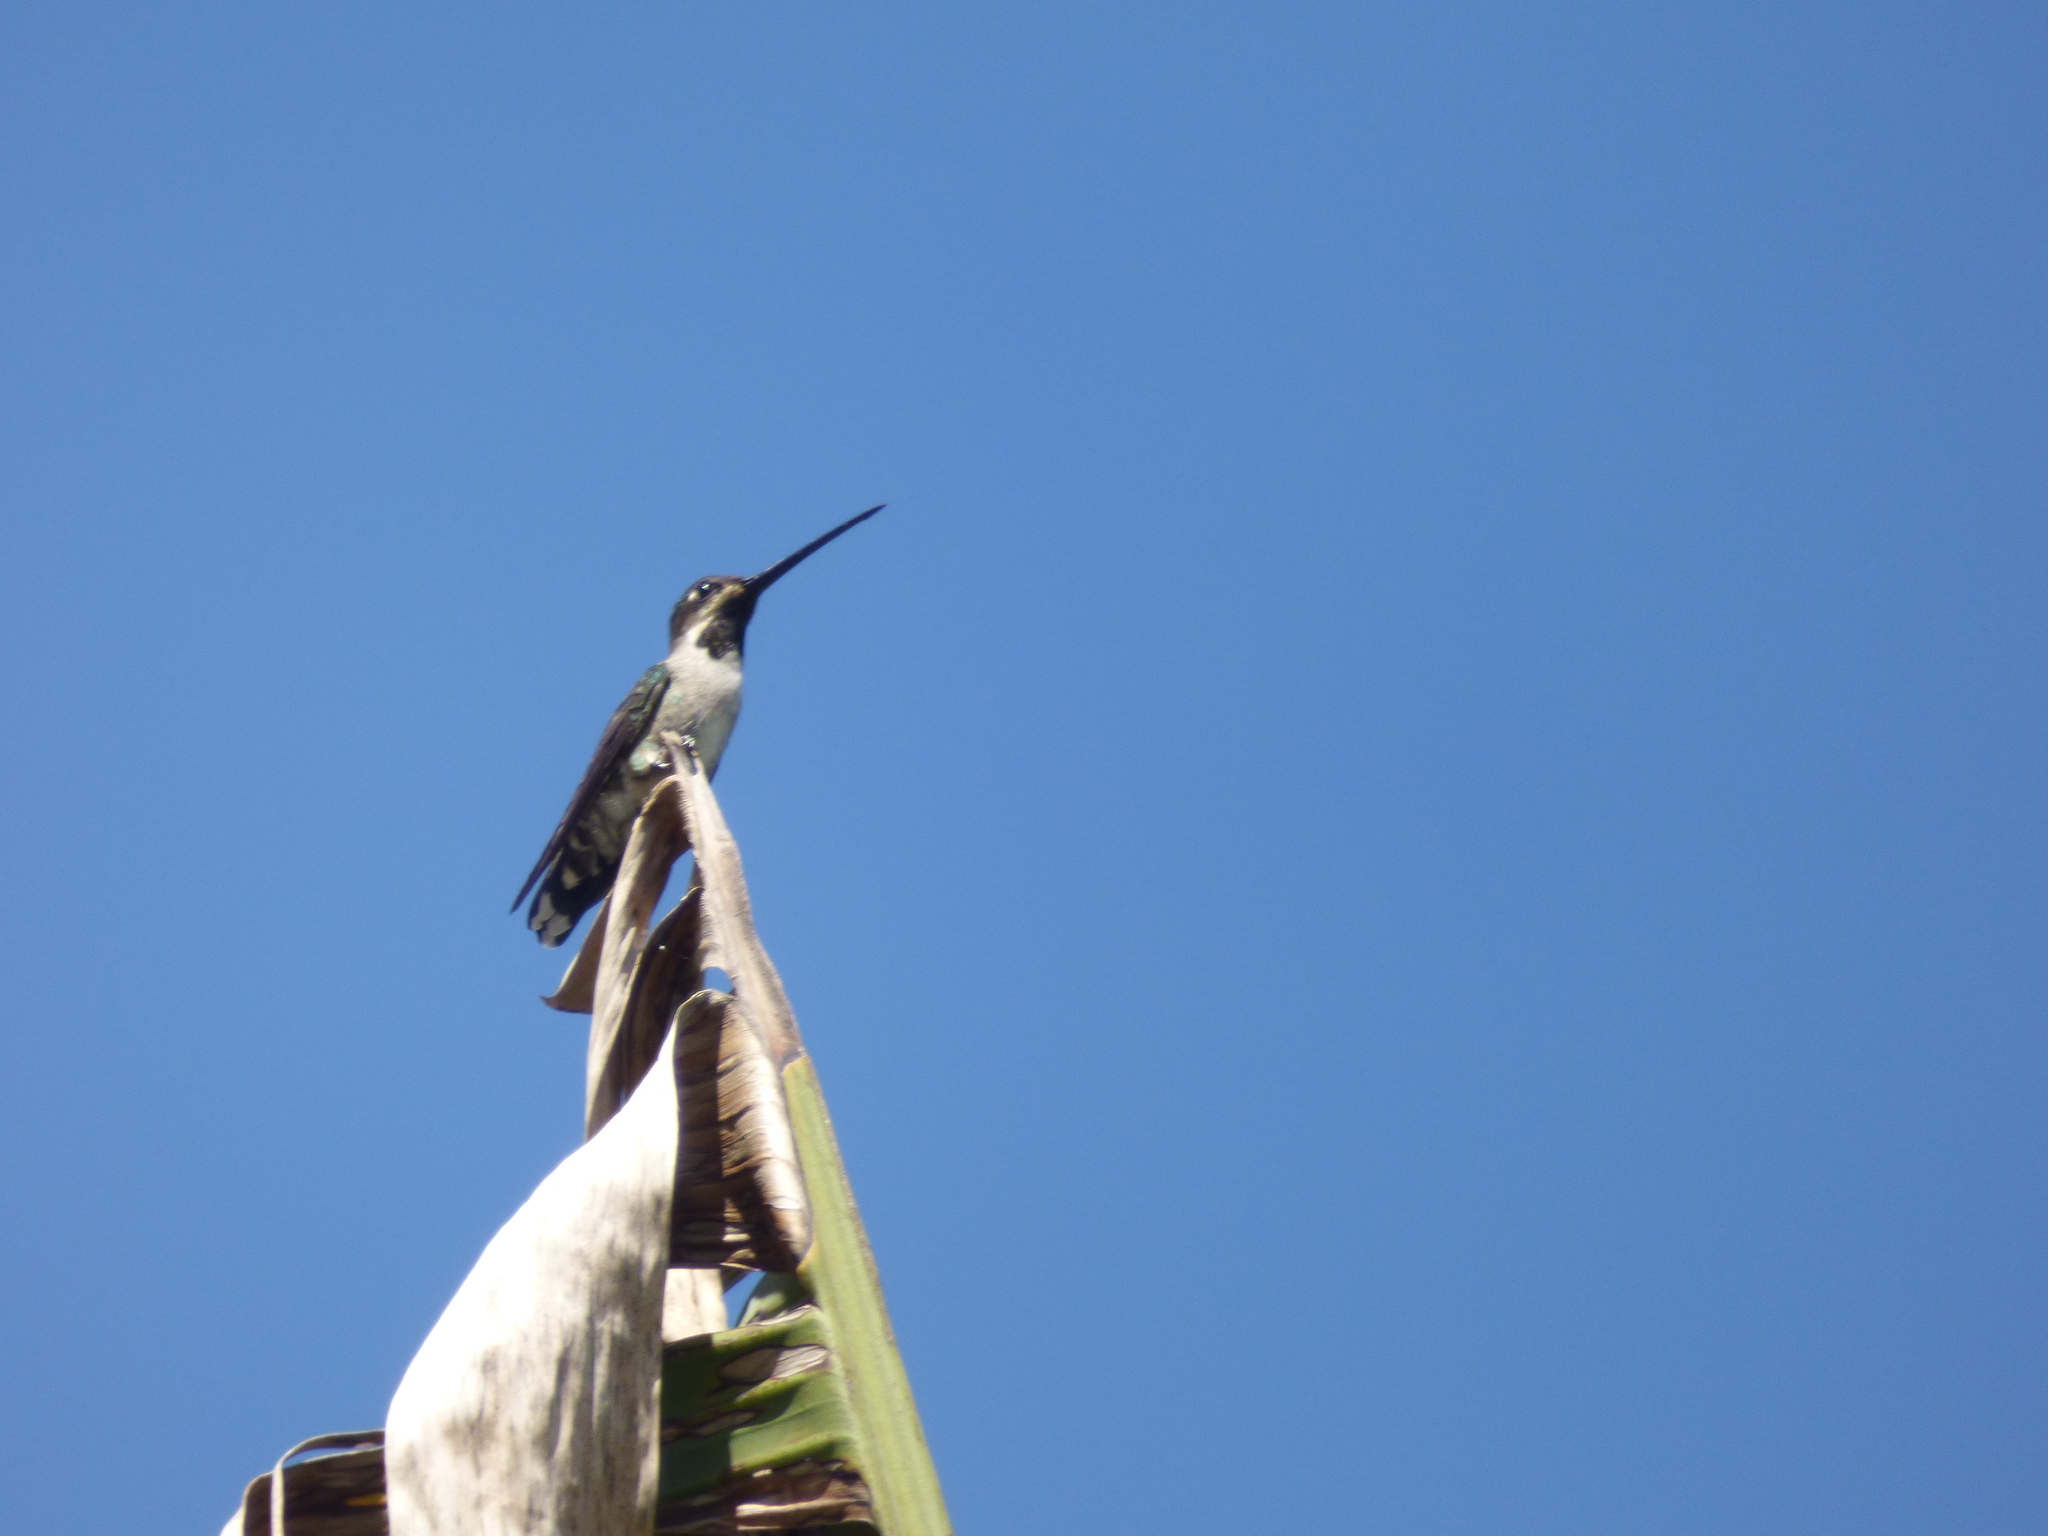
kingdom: Animalia
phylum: Chordata
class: Aves
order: Apodiformes
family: Trochilidae
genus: Heliomaster
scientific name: Heliomaster longirostris
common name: Long-billed starthroat
